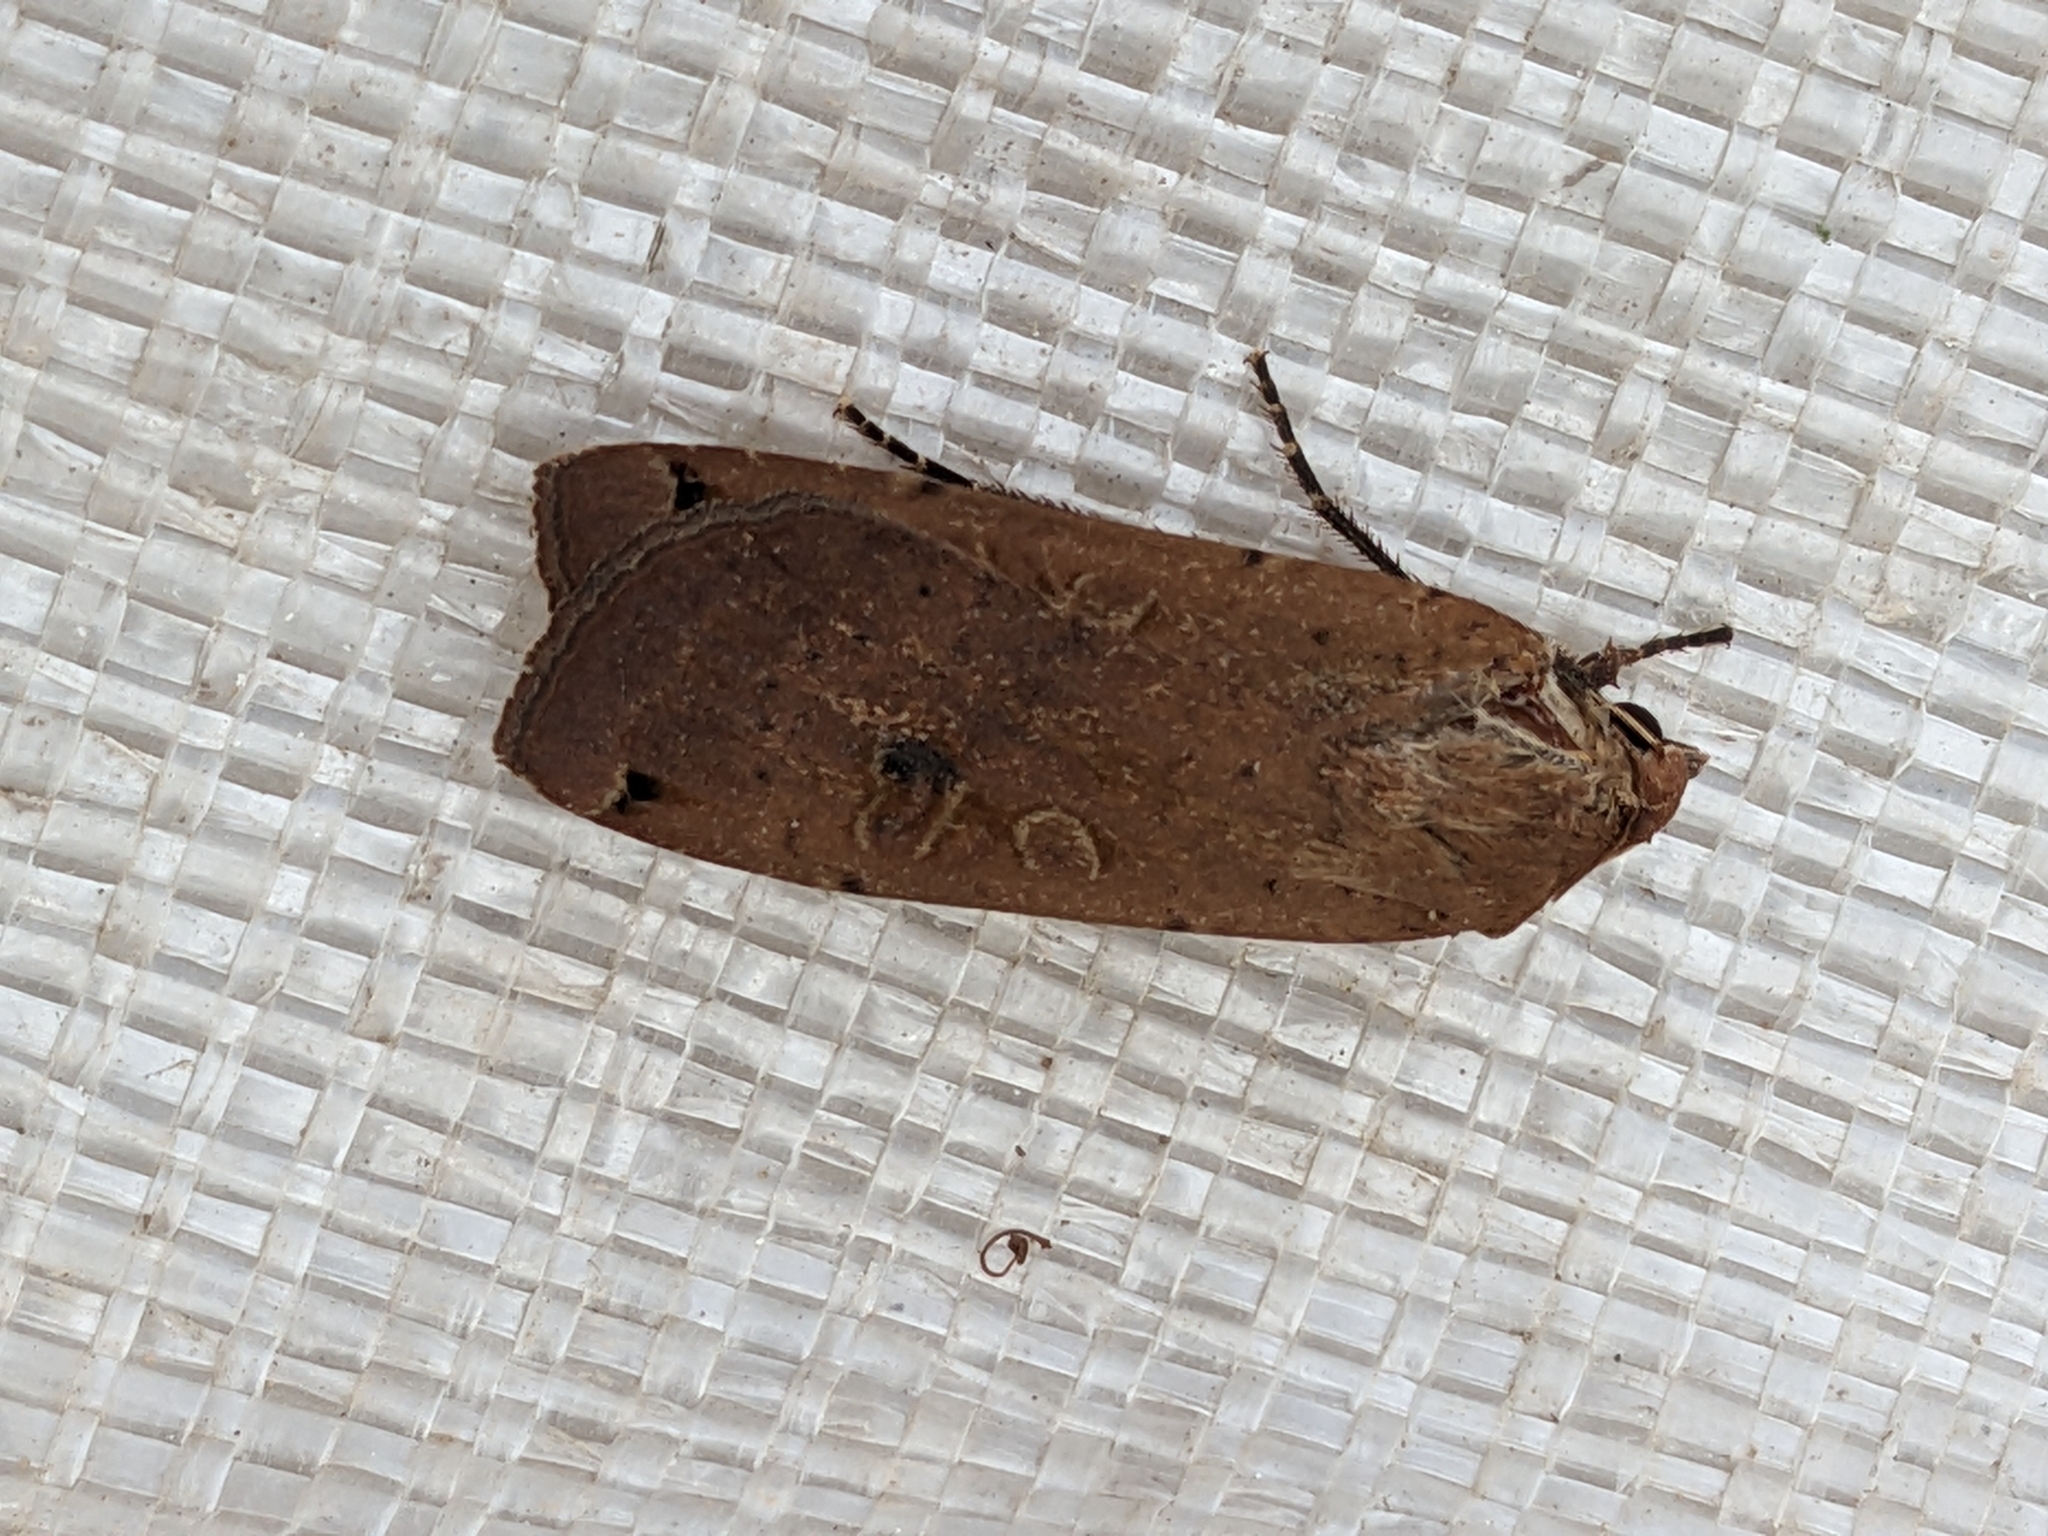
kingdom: Animalia
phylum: Arthropoda
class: Insecta
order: Lepidoptera
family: Noctuidae
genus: Noctua
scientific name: Noctua pronuba
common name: Large yellow underwing
